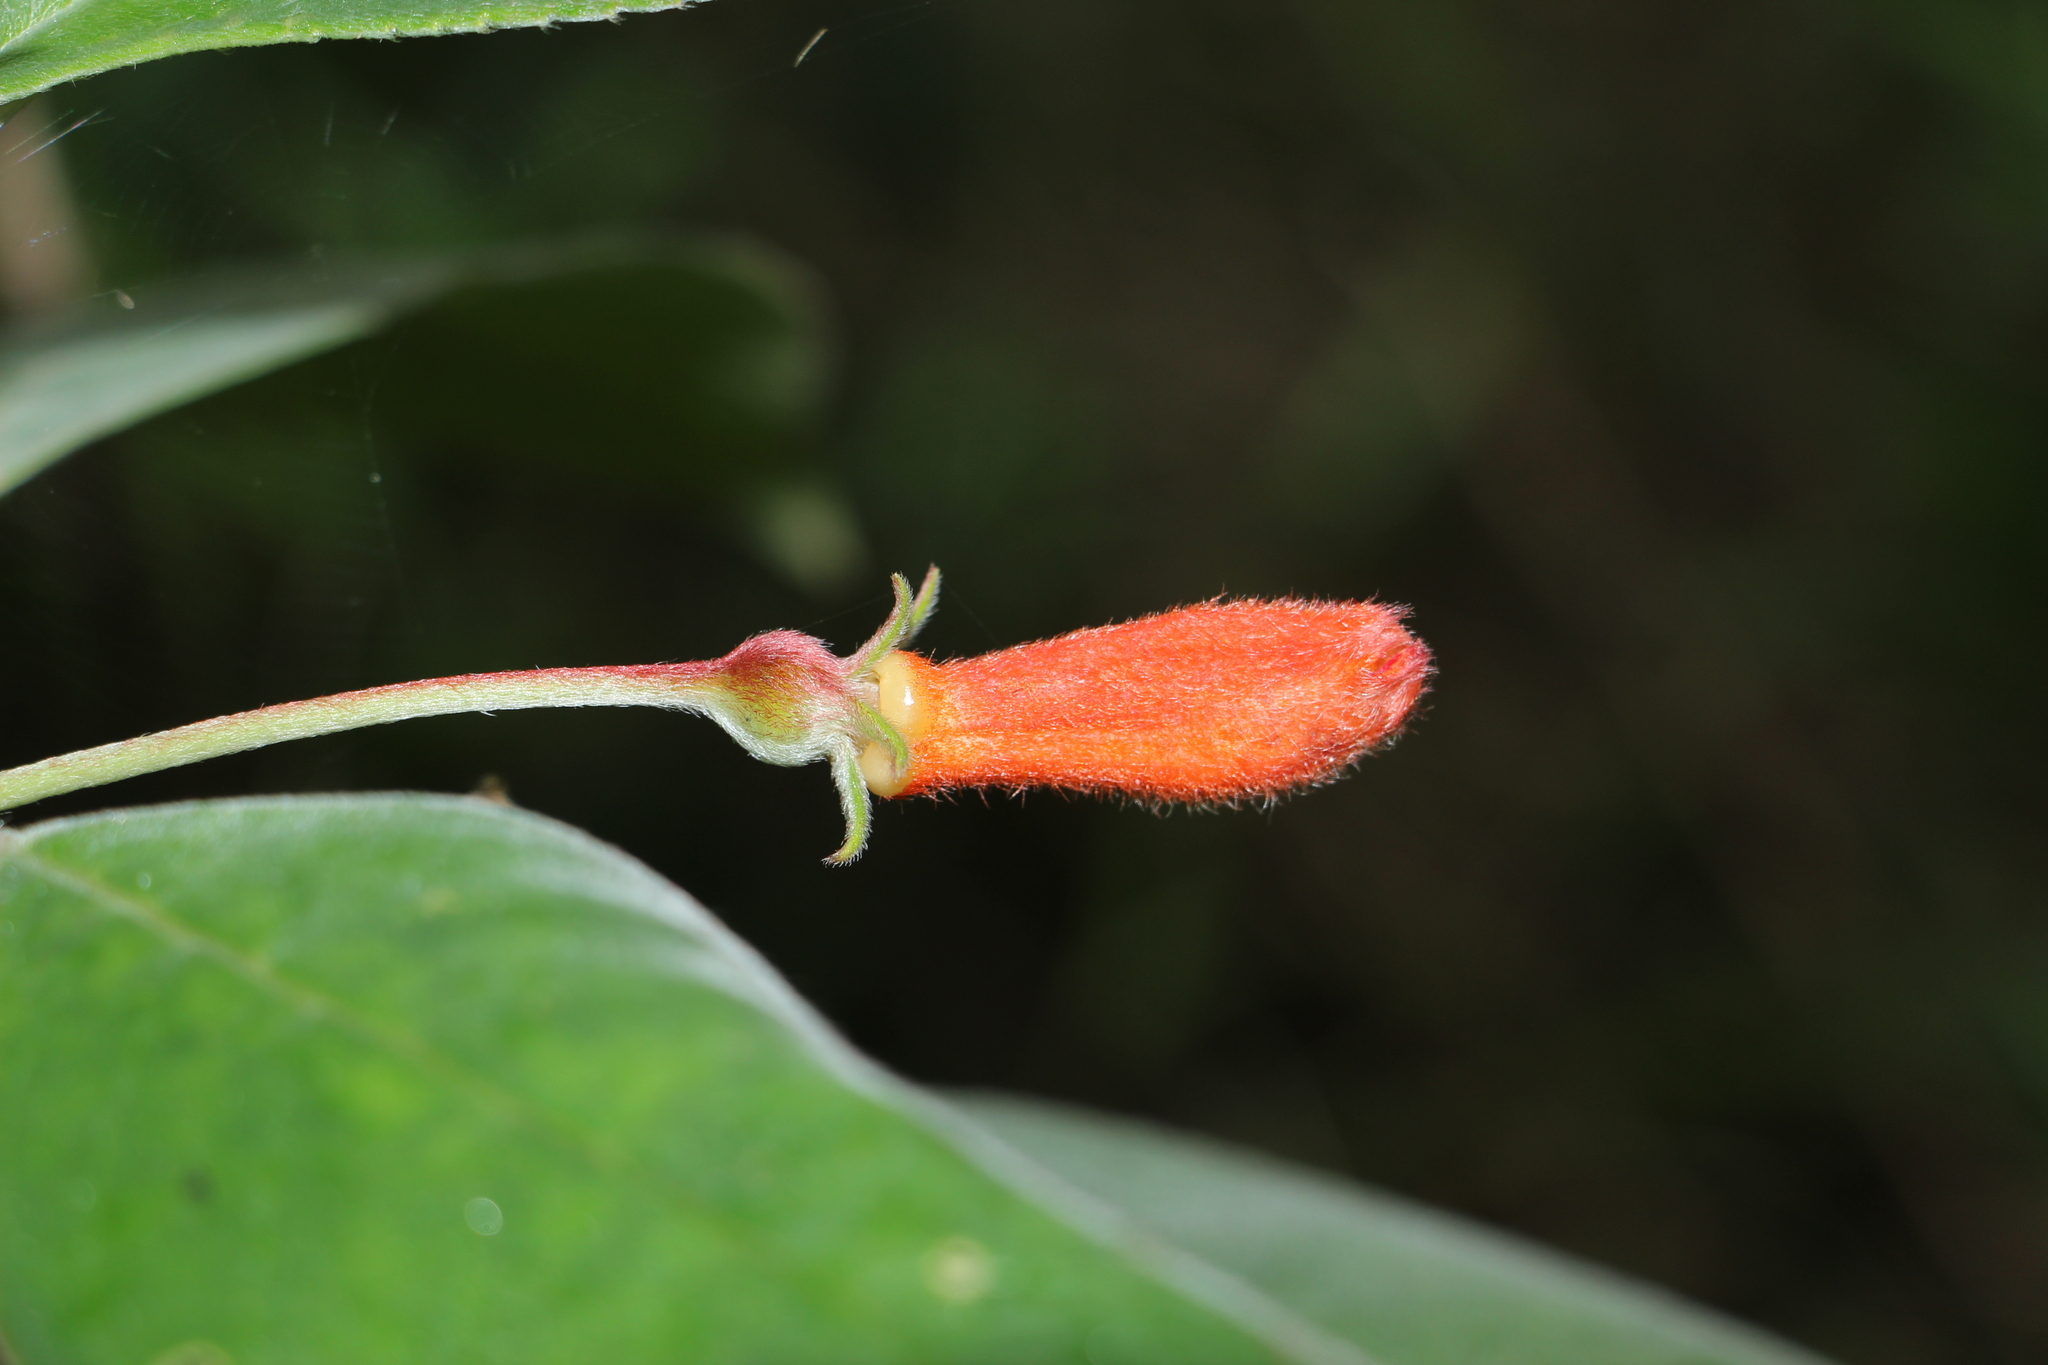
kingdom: Plantae
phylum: Tracheophyta
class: Magnoliopsida
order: Lamiales
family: Gesneriaceae
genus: Kohleria
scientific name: Kohleria hirsuta
